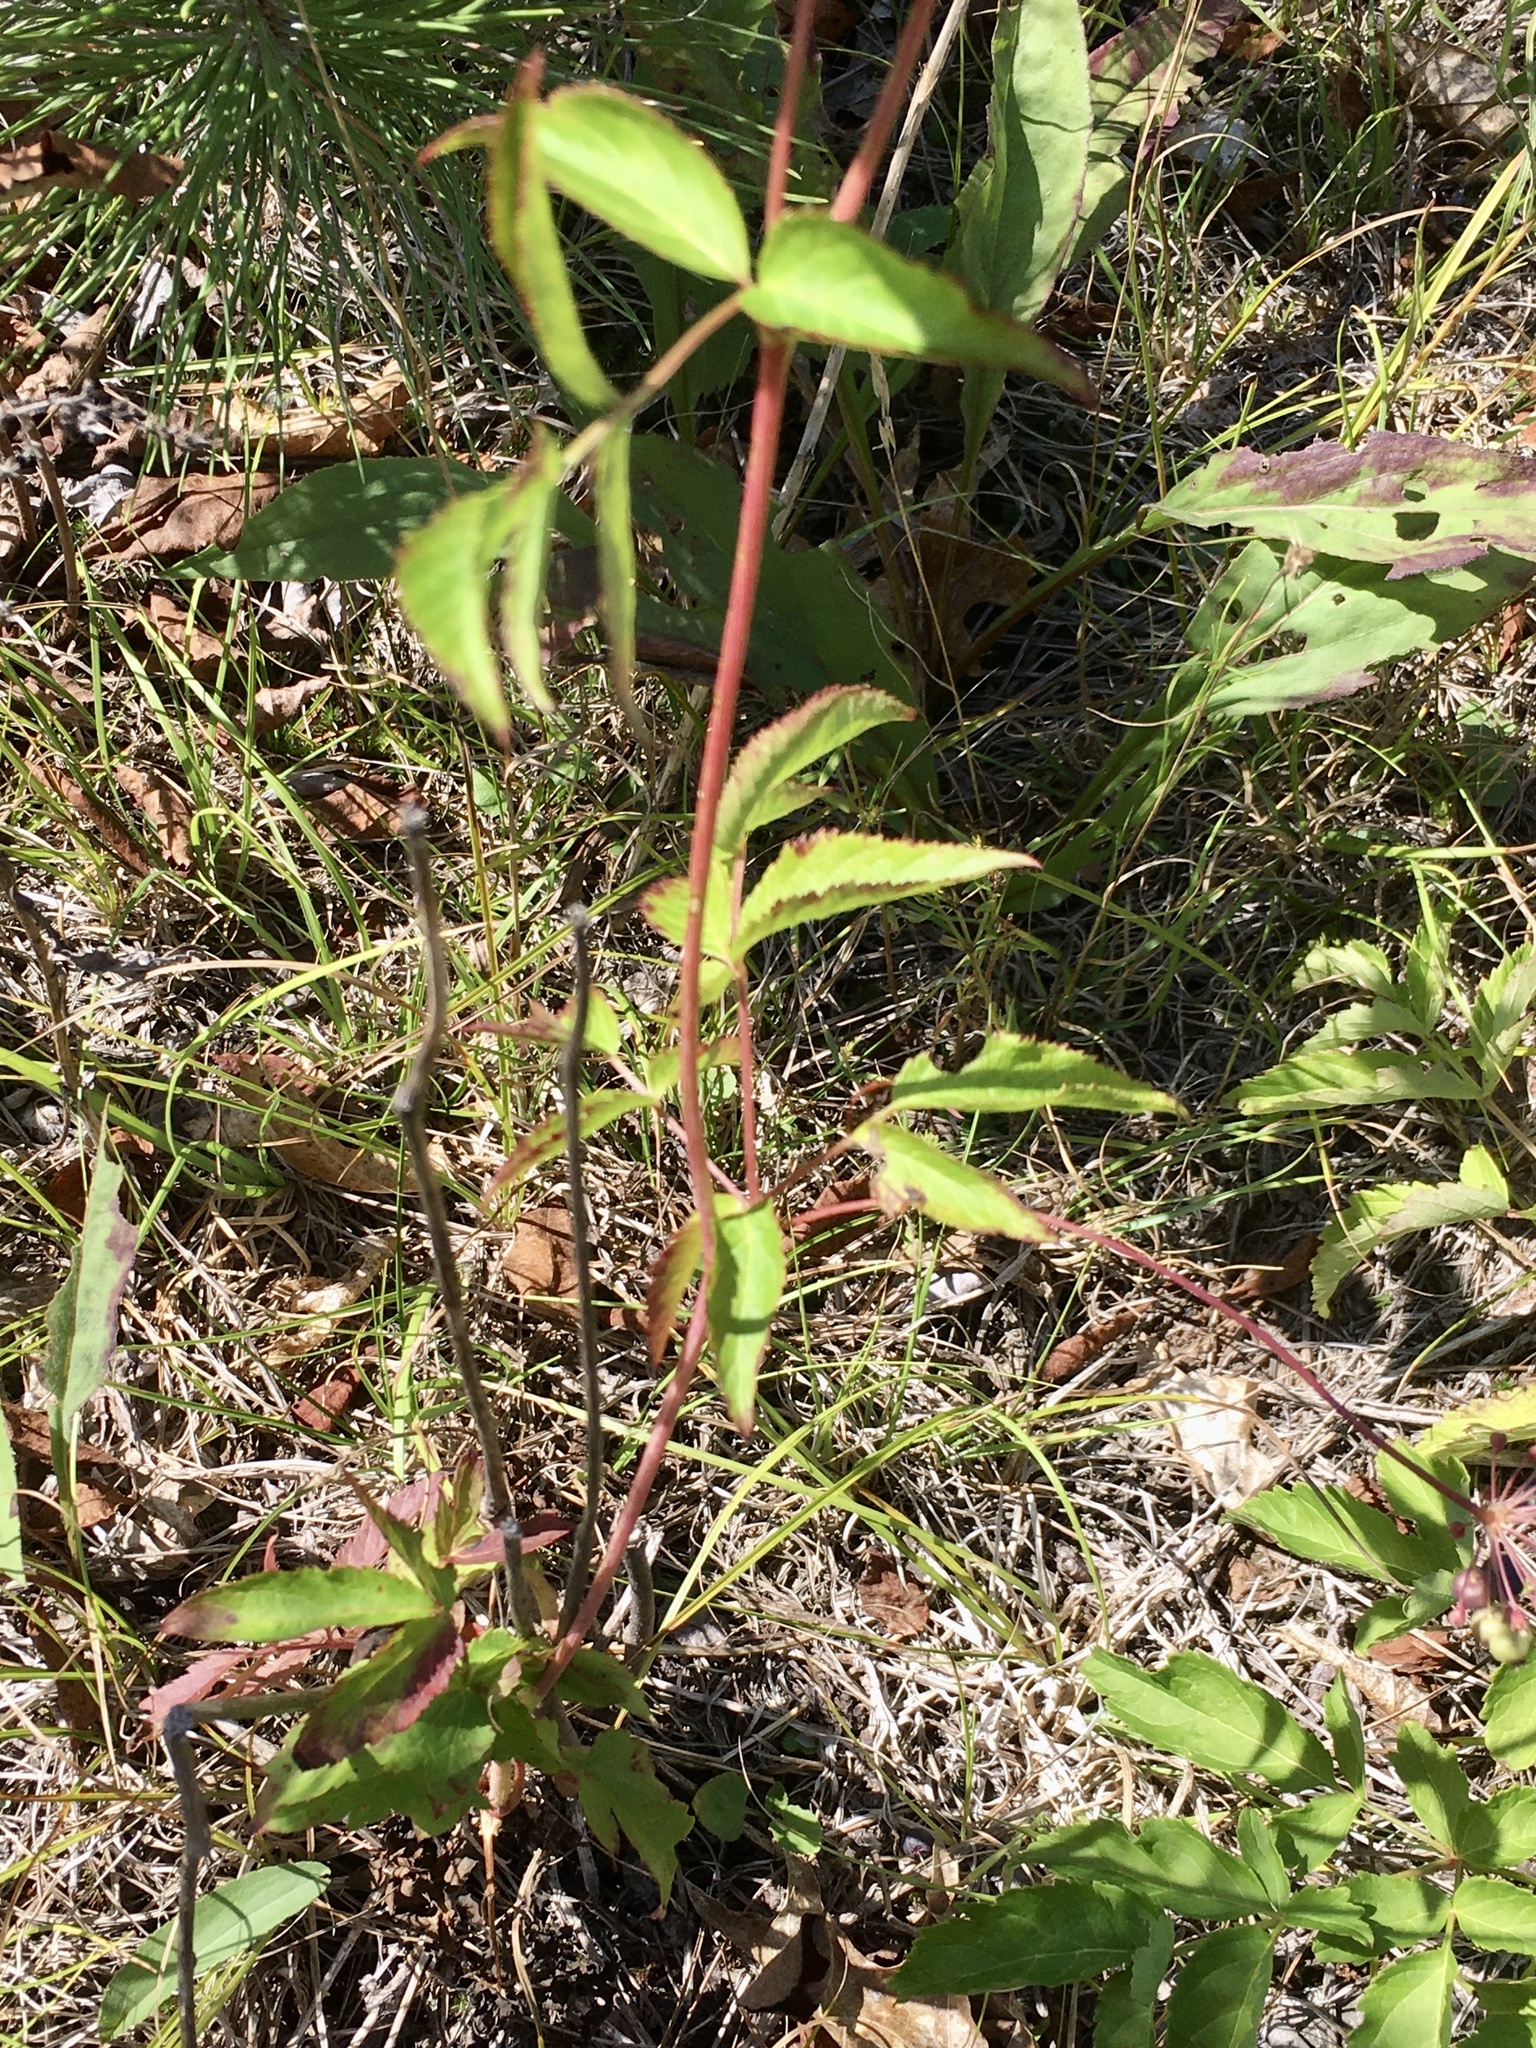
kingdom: Plantae
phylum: Tracheophyta
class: Magnoliopsida
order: Apiales
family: Araliaceae
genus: Aralia
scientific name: Aralia hispida
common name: Bristly sarsaparilla
